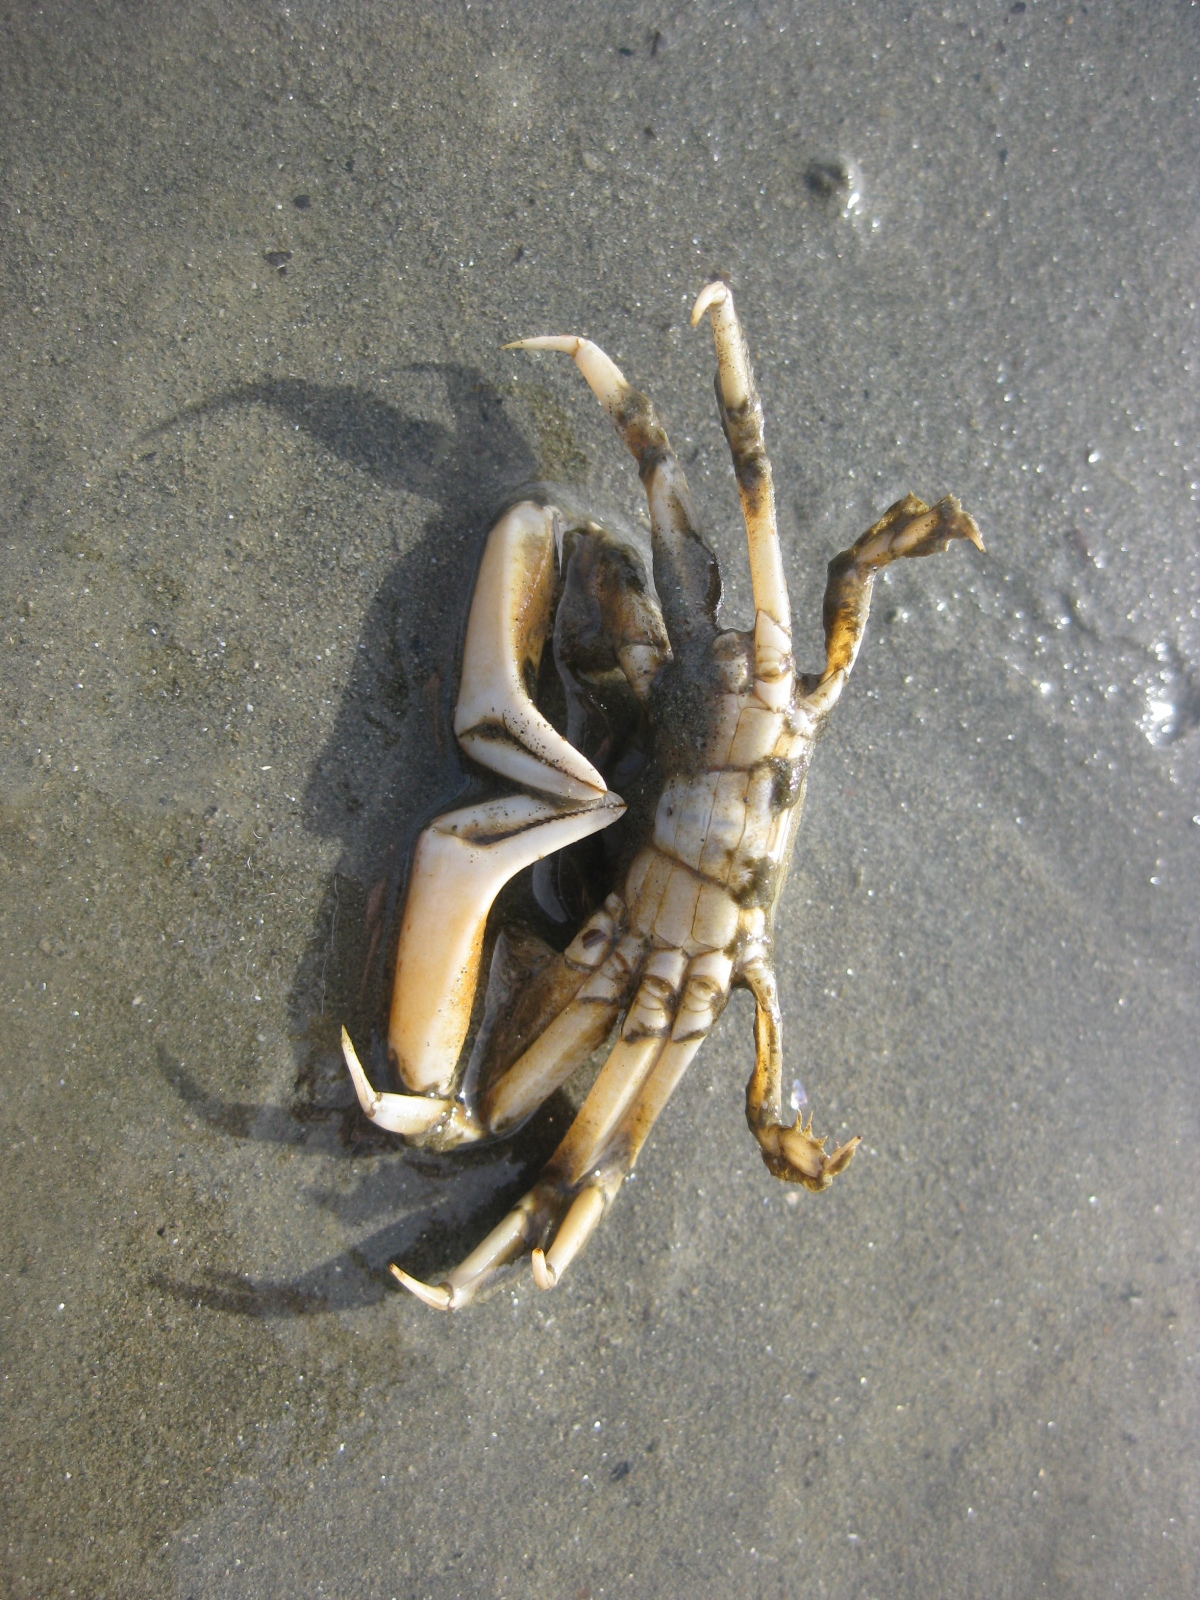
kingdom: Animalia
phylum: Arthropoda
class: Malacostraca
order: Decapoda
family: Macrophthalmidae
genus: Hemiplax
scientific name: Hemiplax hirtipes
